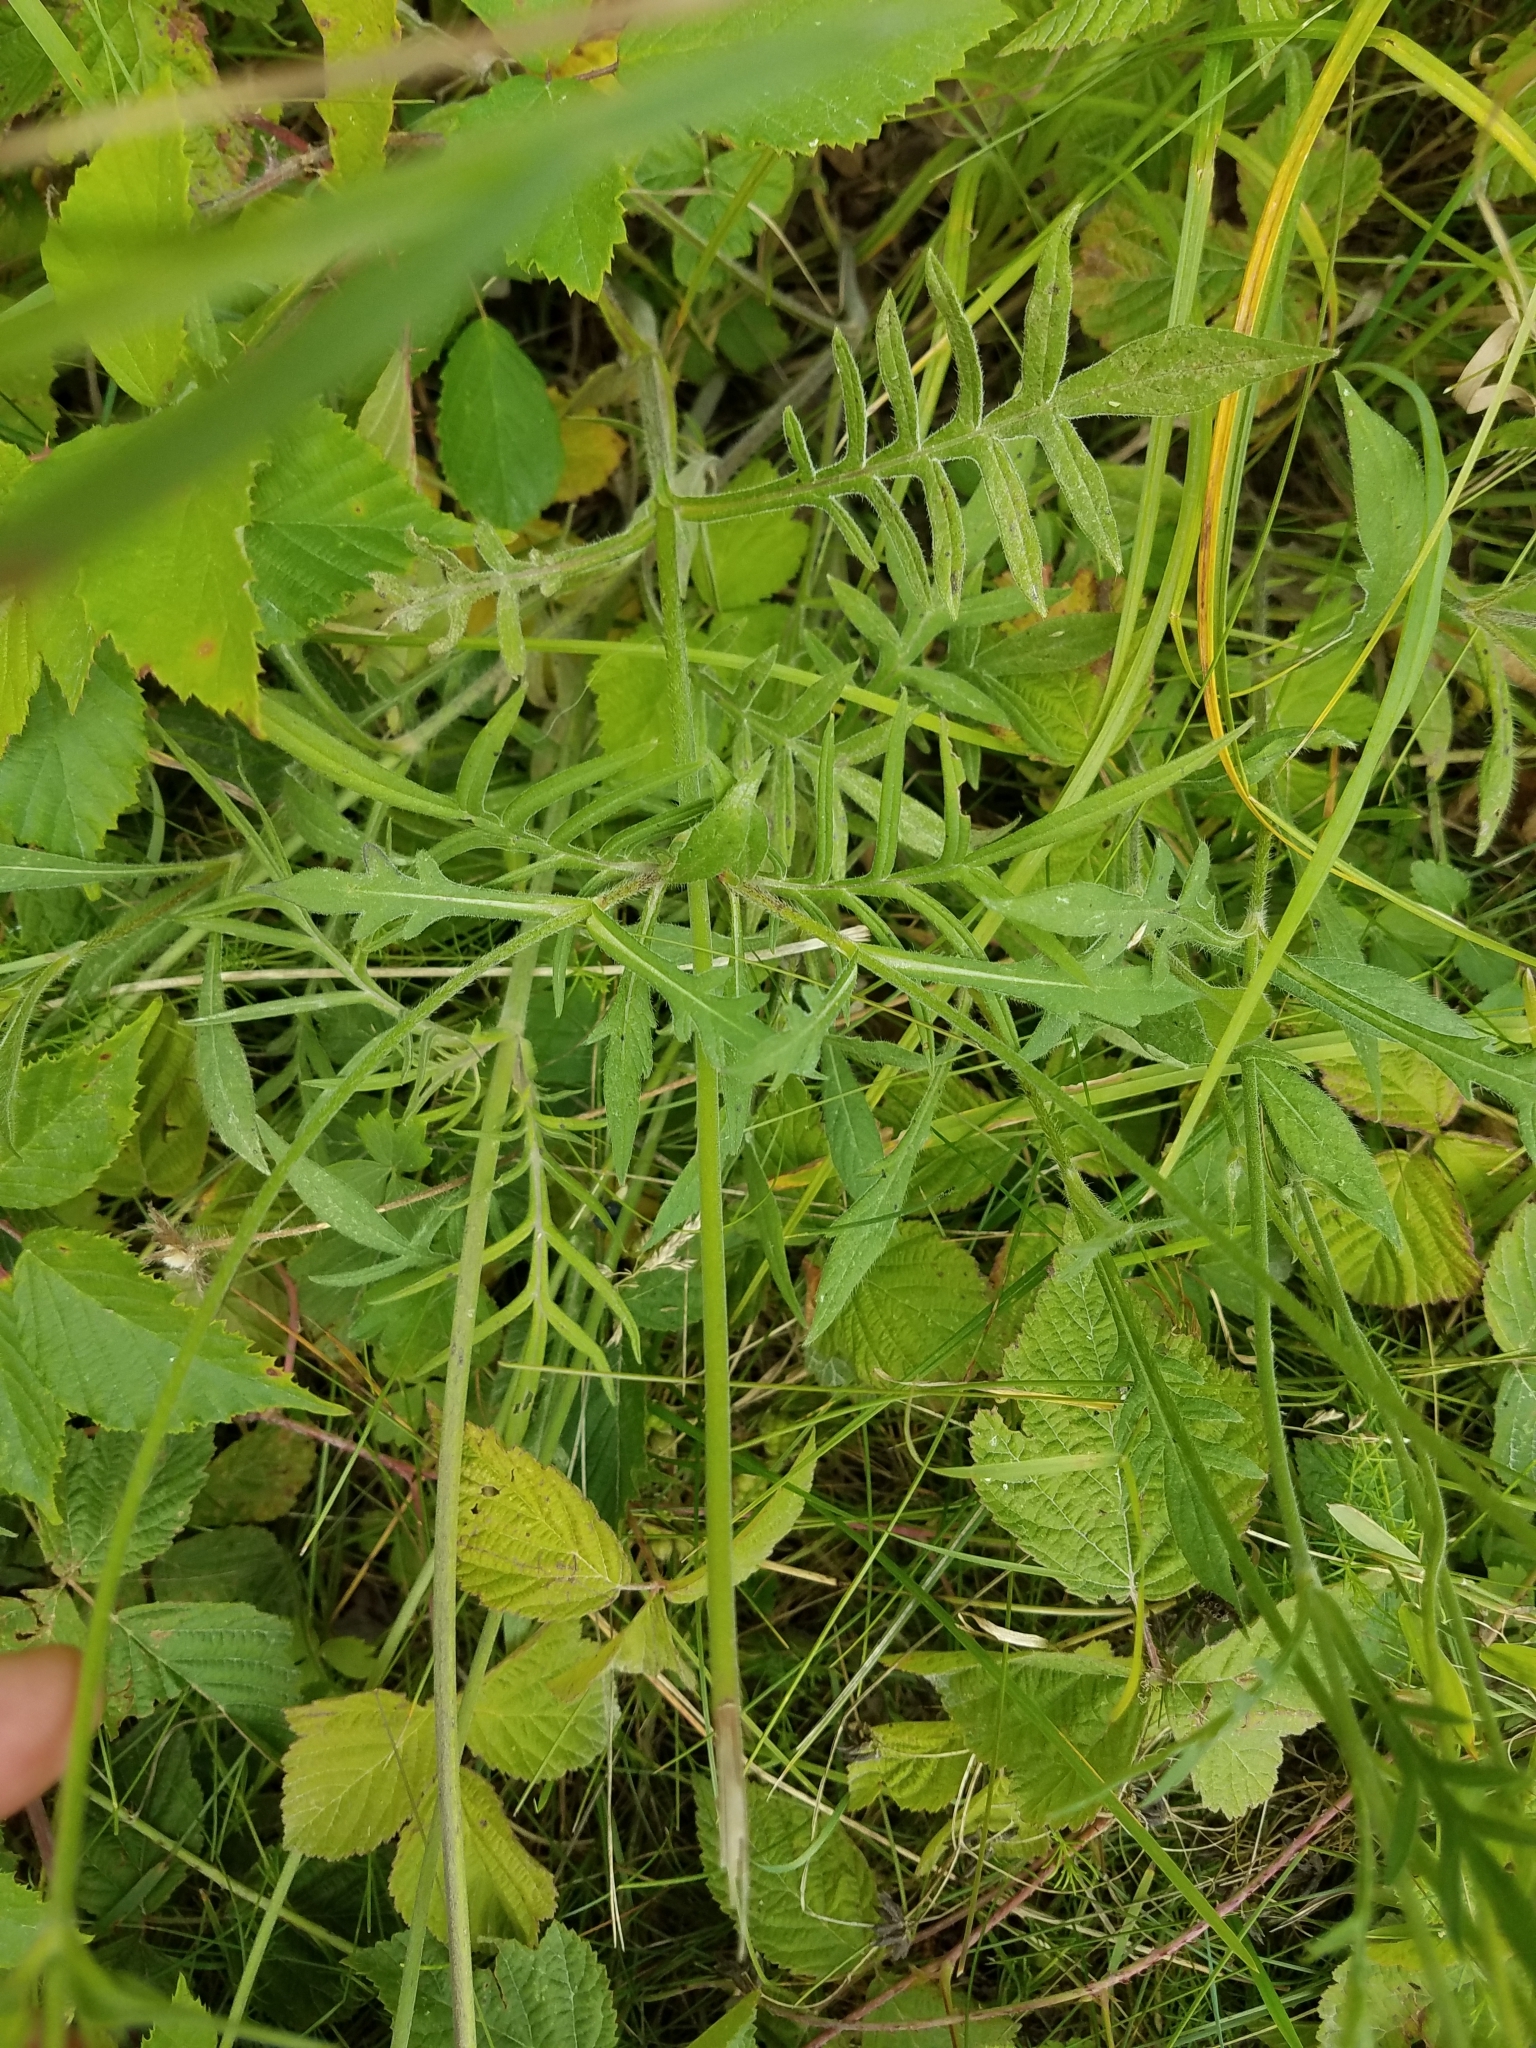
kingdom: Plantae
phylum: Tracheophyta
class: Magnoliopsida
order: Dipsacales
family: Caprifoliaceae
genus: Knautia
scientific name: Knautia arvensis
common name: Field scabiosa
